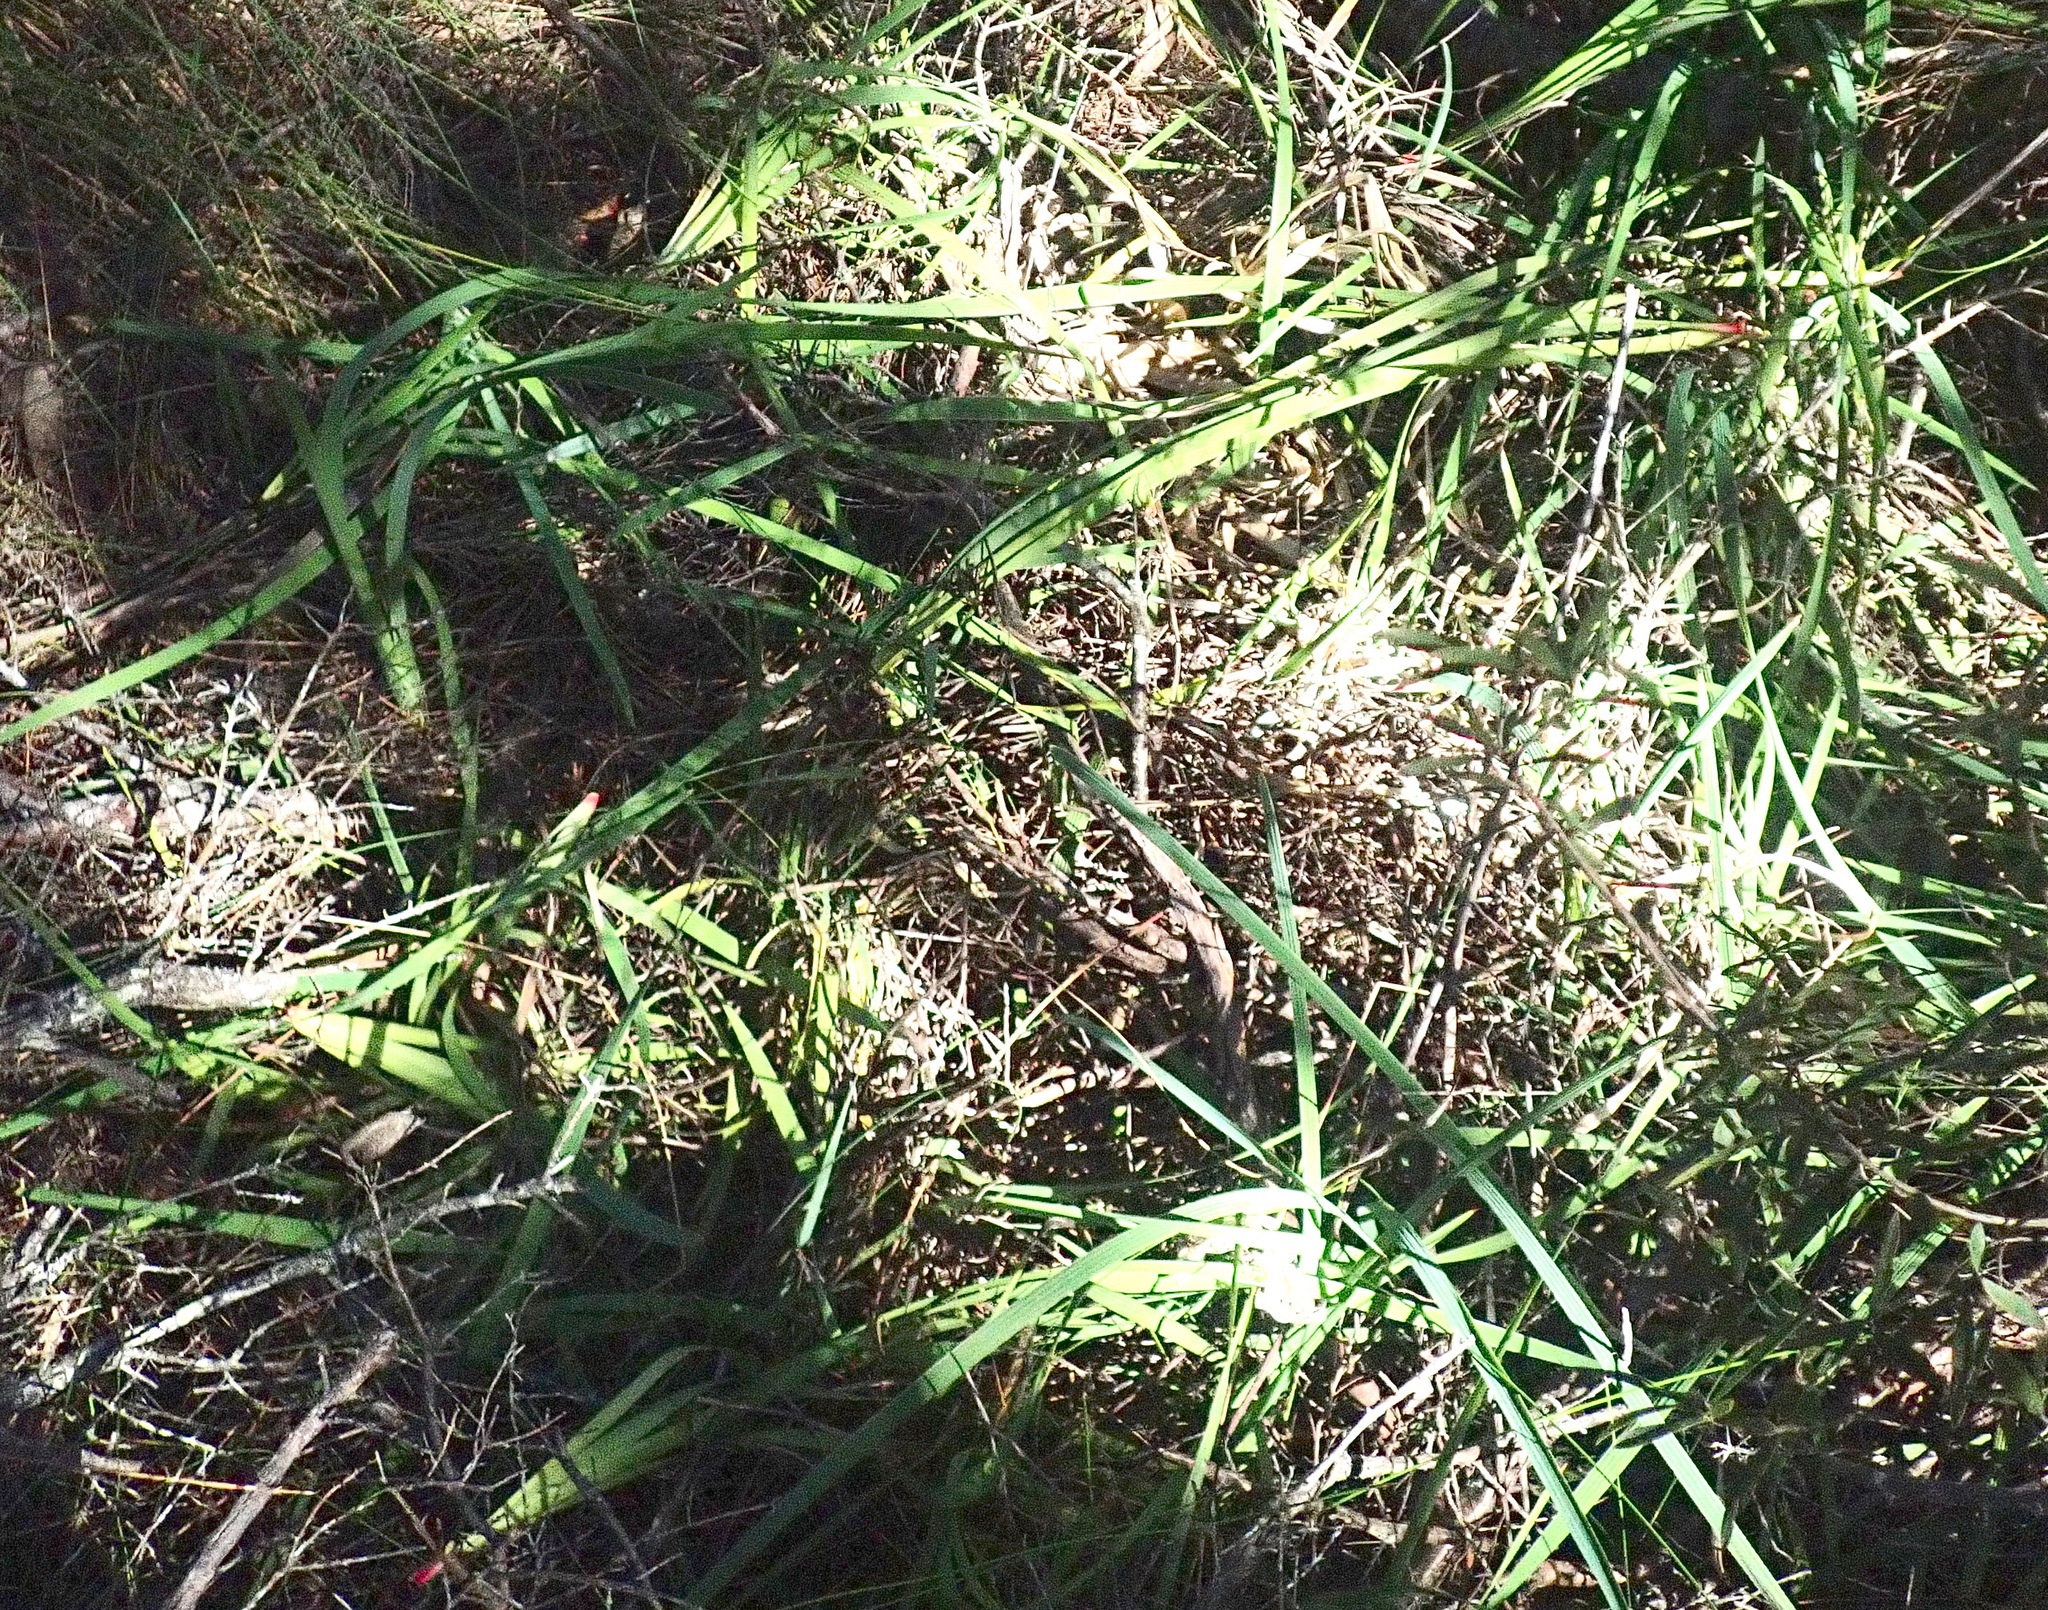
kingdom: Plantae
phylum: Tracheophyta
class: Liliopsida
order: Asparagales
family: Iridaceae
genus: Aristea
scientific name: Aristea ecklonii
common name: Blue corn-lily
